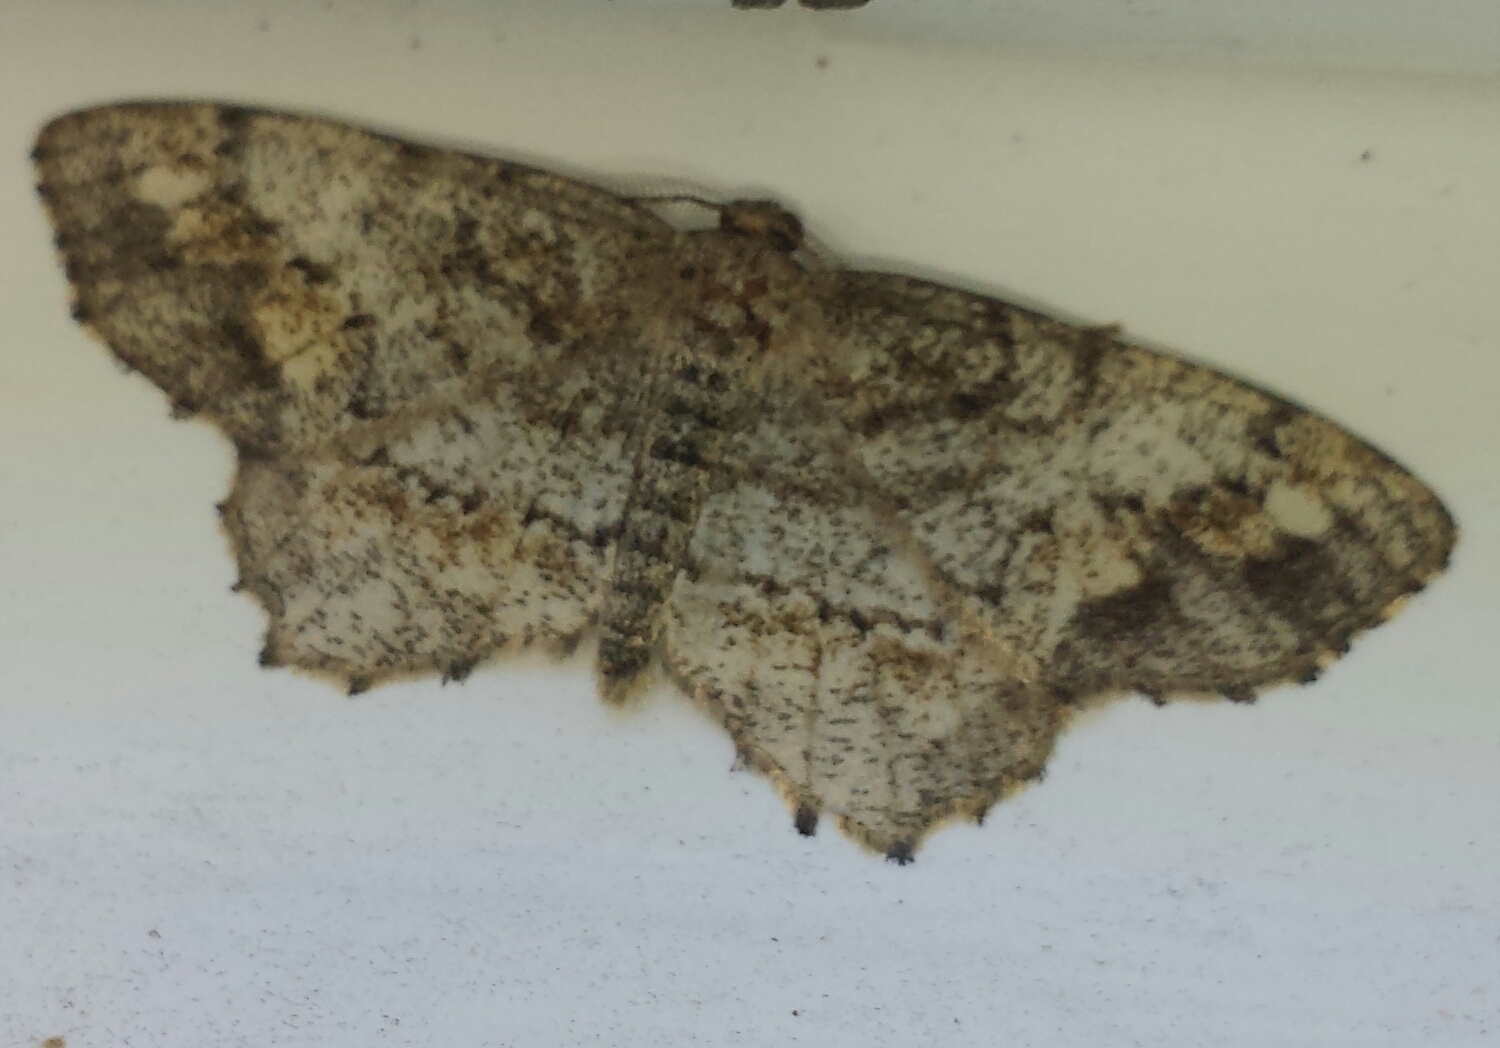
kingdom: Animalia
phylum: Arthropoda
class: Insecta
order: Lepidoptera
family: Geometridae
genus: Hypagyrtis
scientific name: Hypagyrtis unipunctata
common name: One-spotted variant
